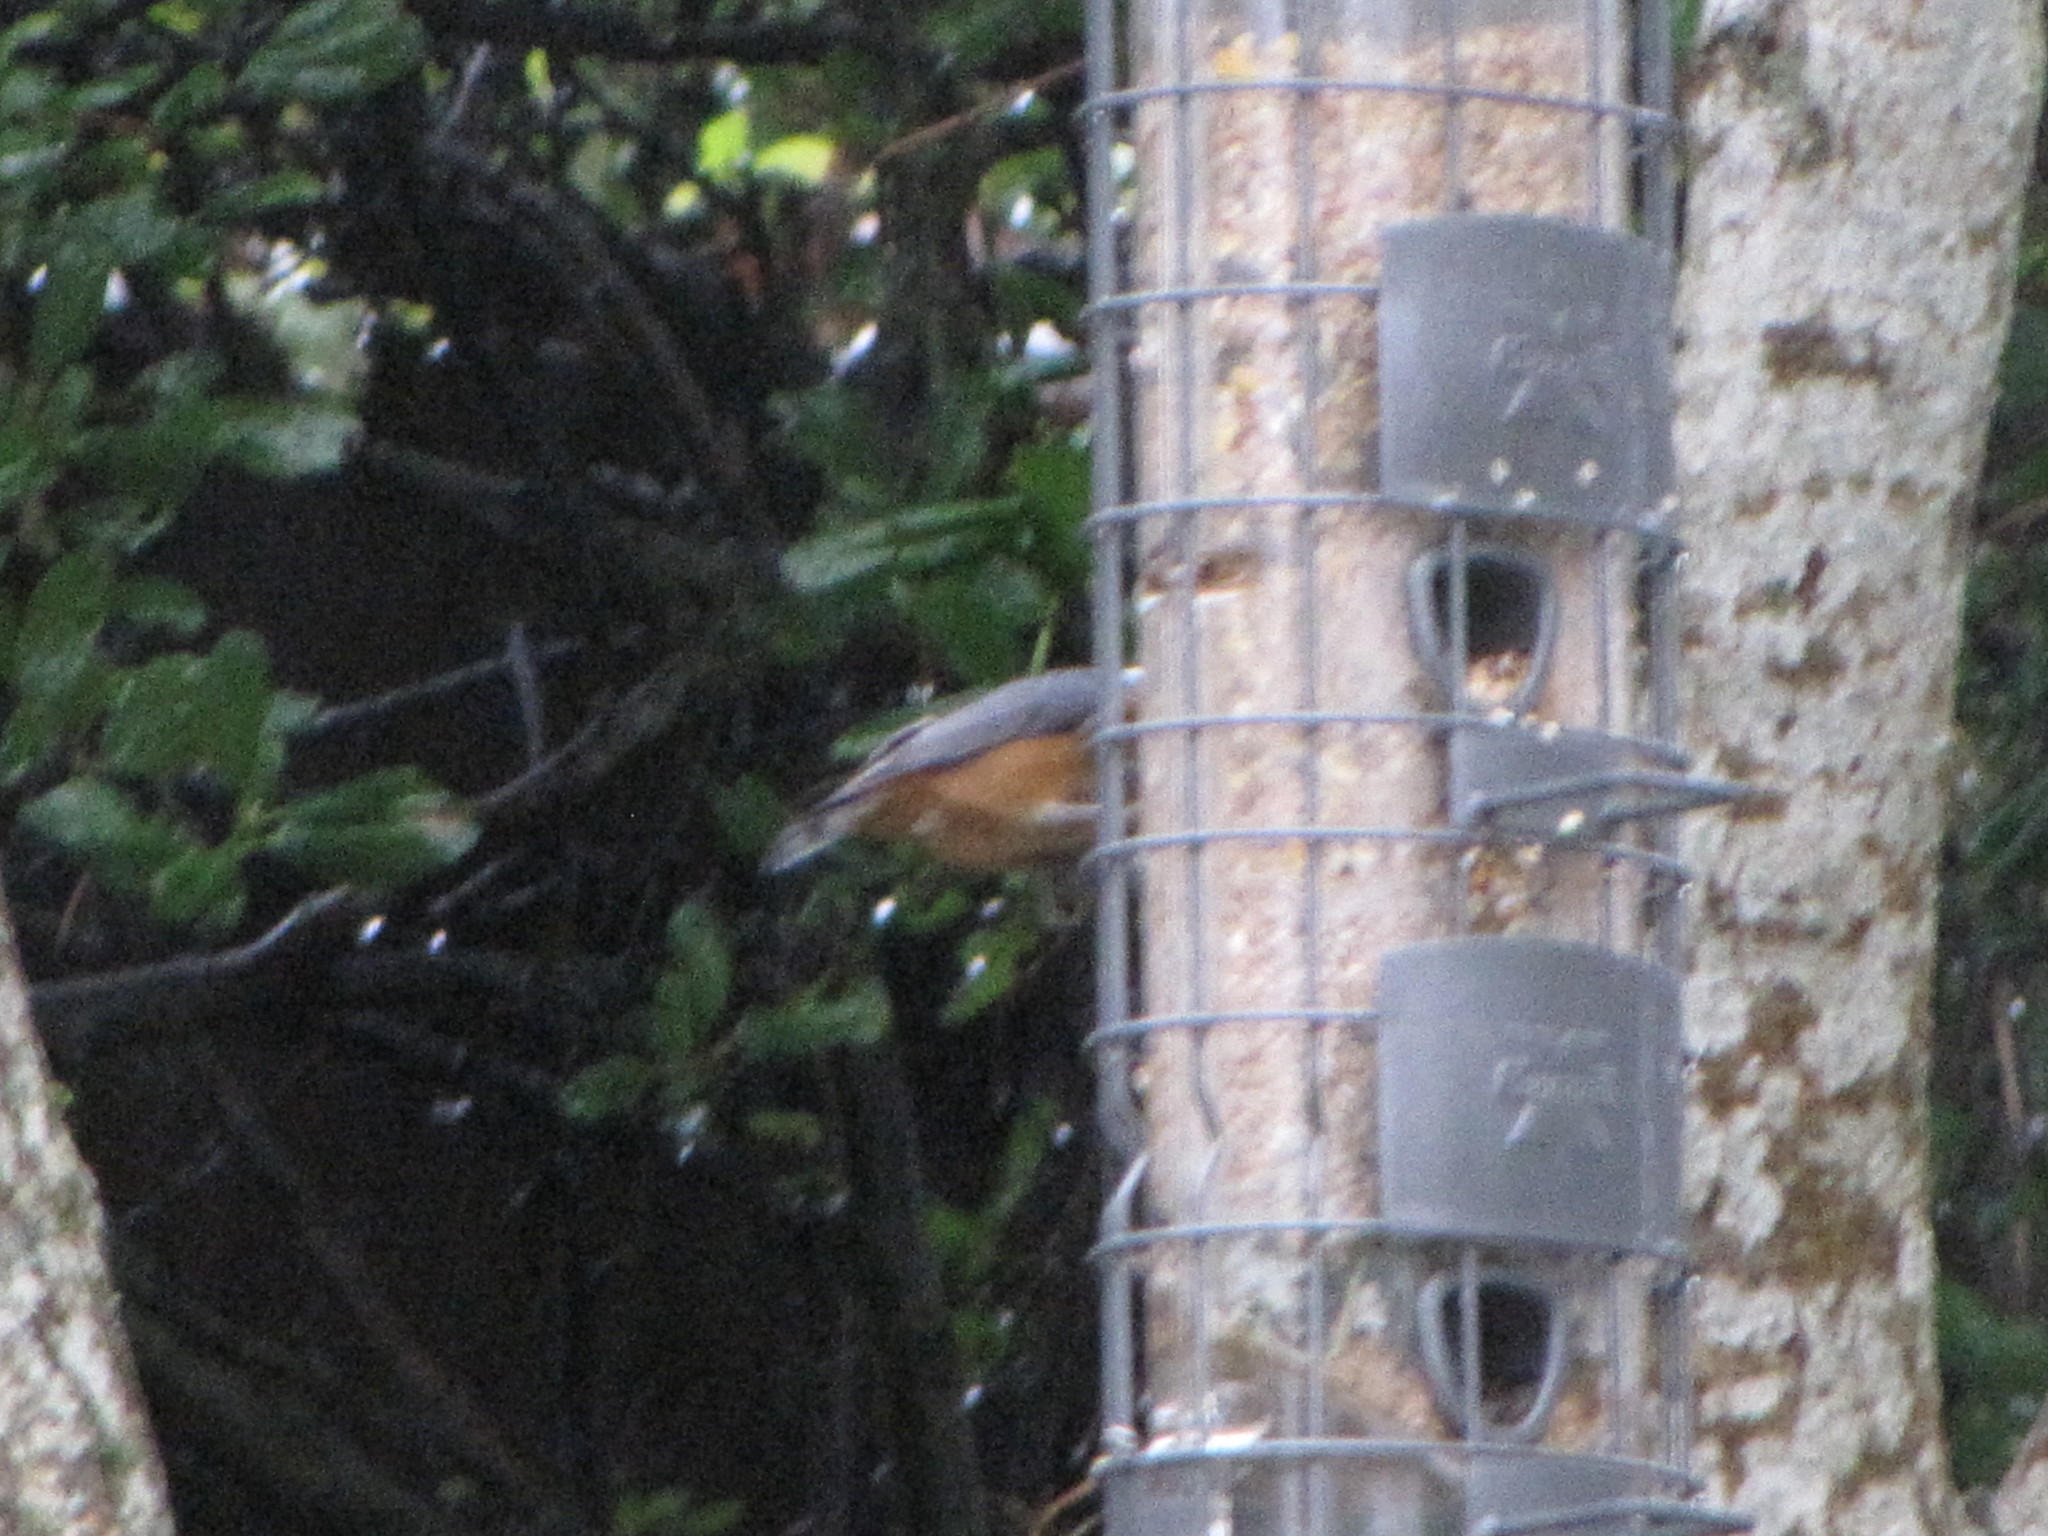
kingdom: Animalia
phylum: Chordata
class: Aves
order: Passeriformes
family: Sittidae
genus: Sitta
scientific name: Sitta canadensis
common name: Red-breasted nuthatch
